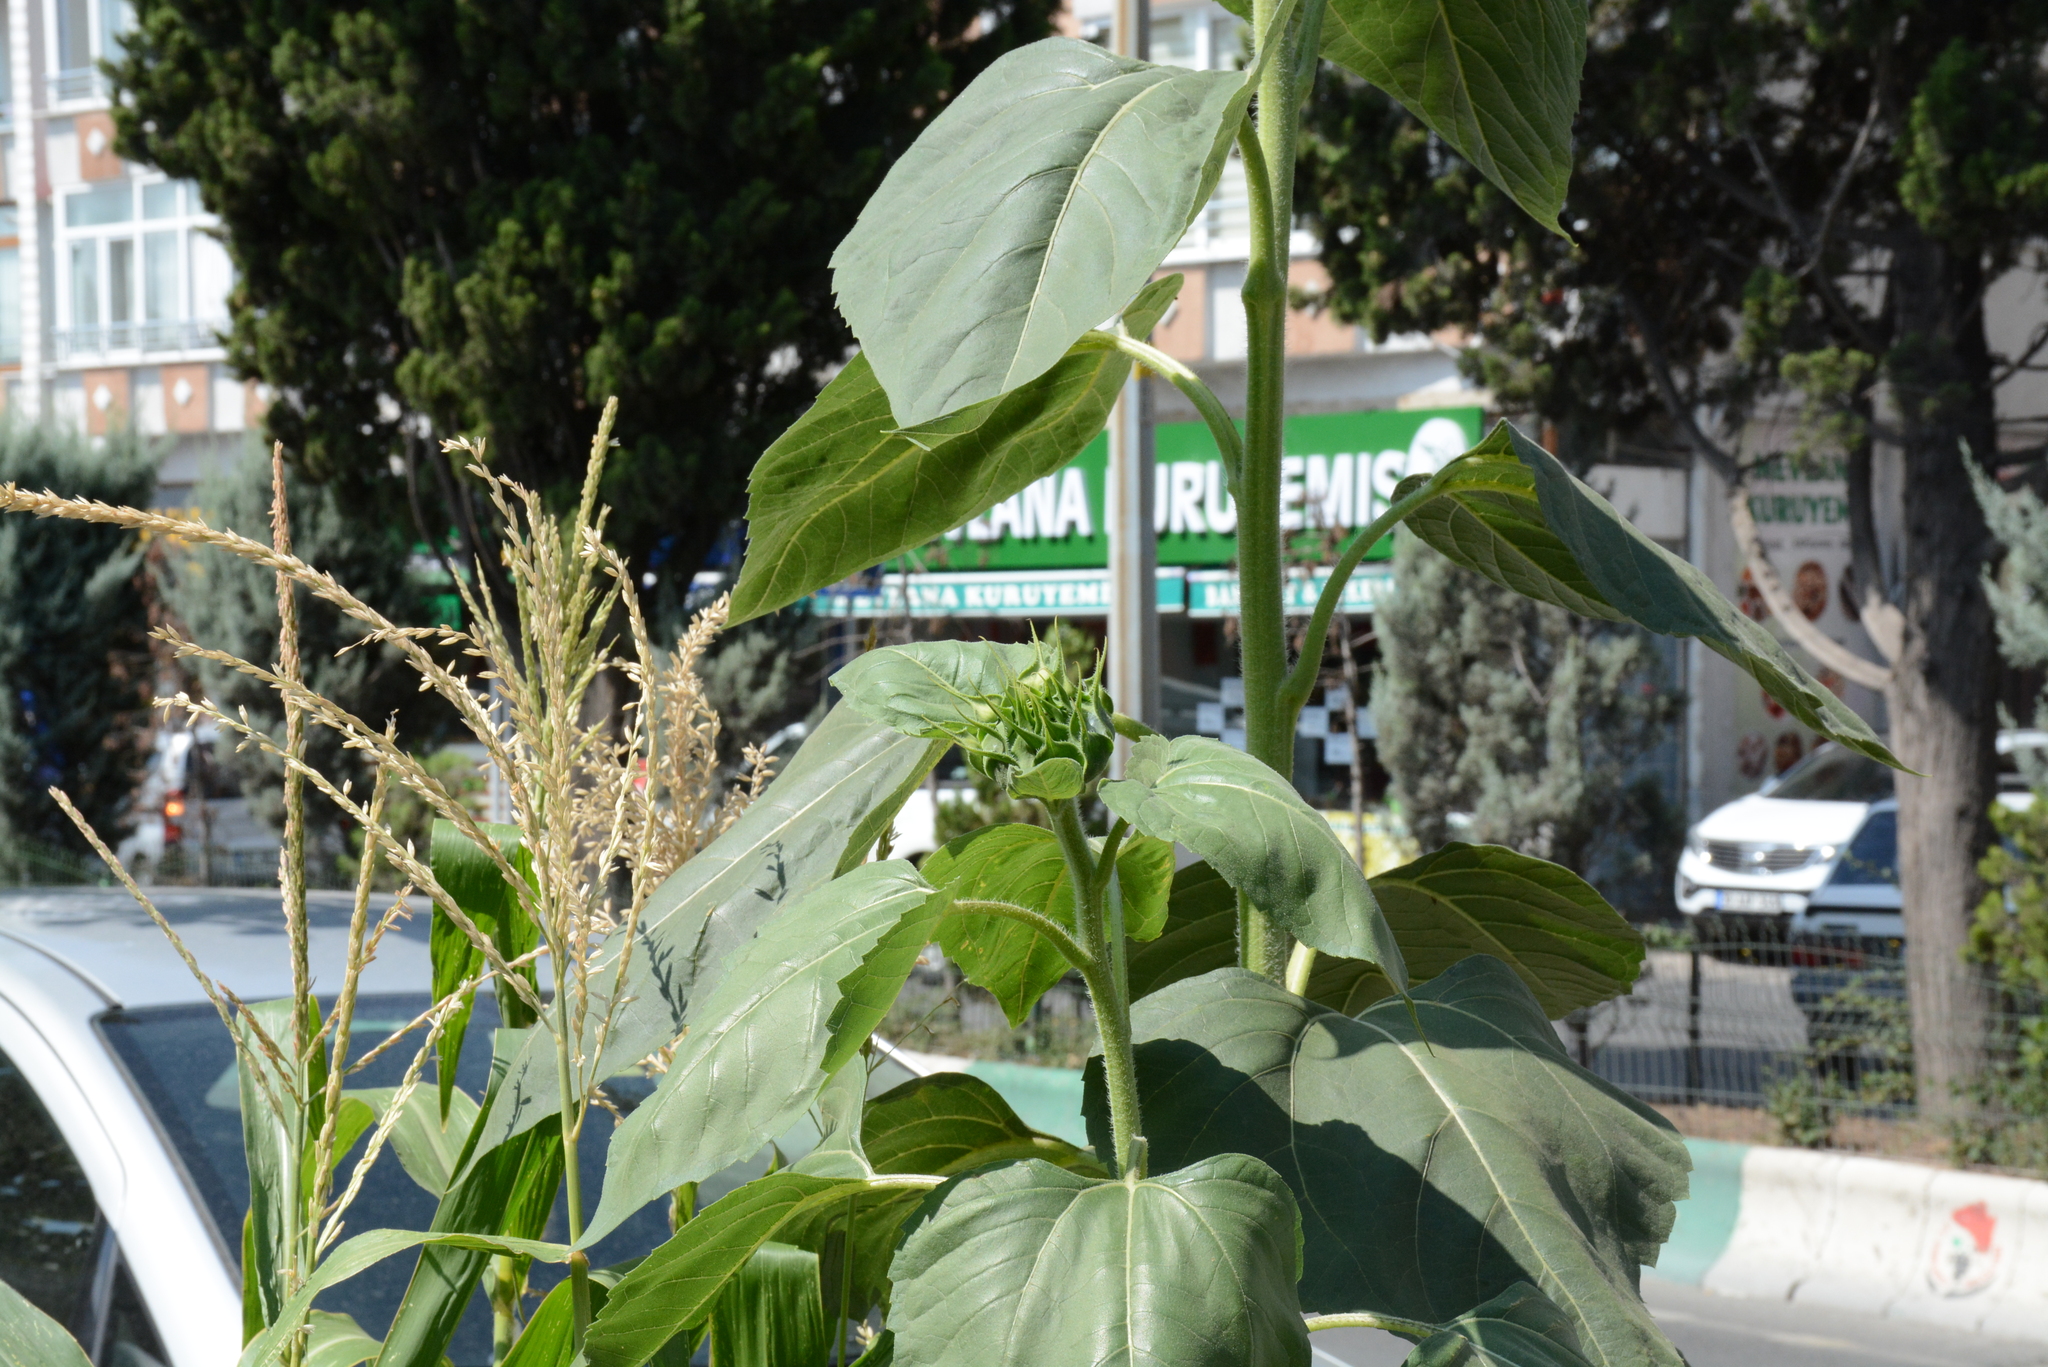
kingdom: Plantae
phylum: Tracheophyta
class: Magnoliopsida
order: Asterales
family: Asteraceae
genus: Helianthus
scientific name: Helianthus annuus
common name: Sunflower
